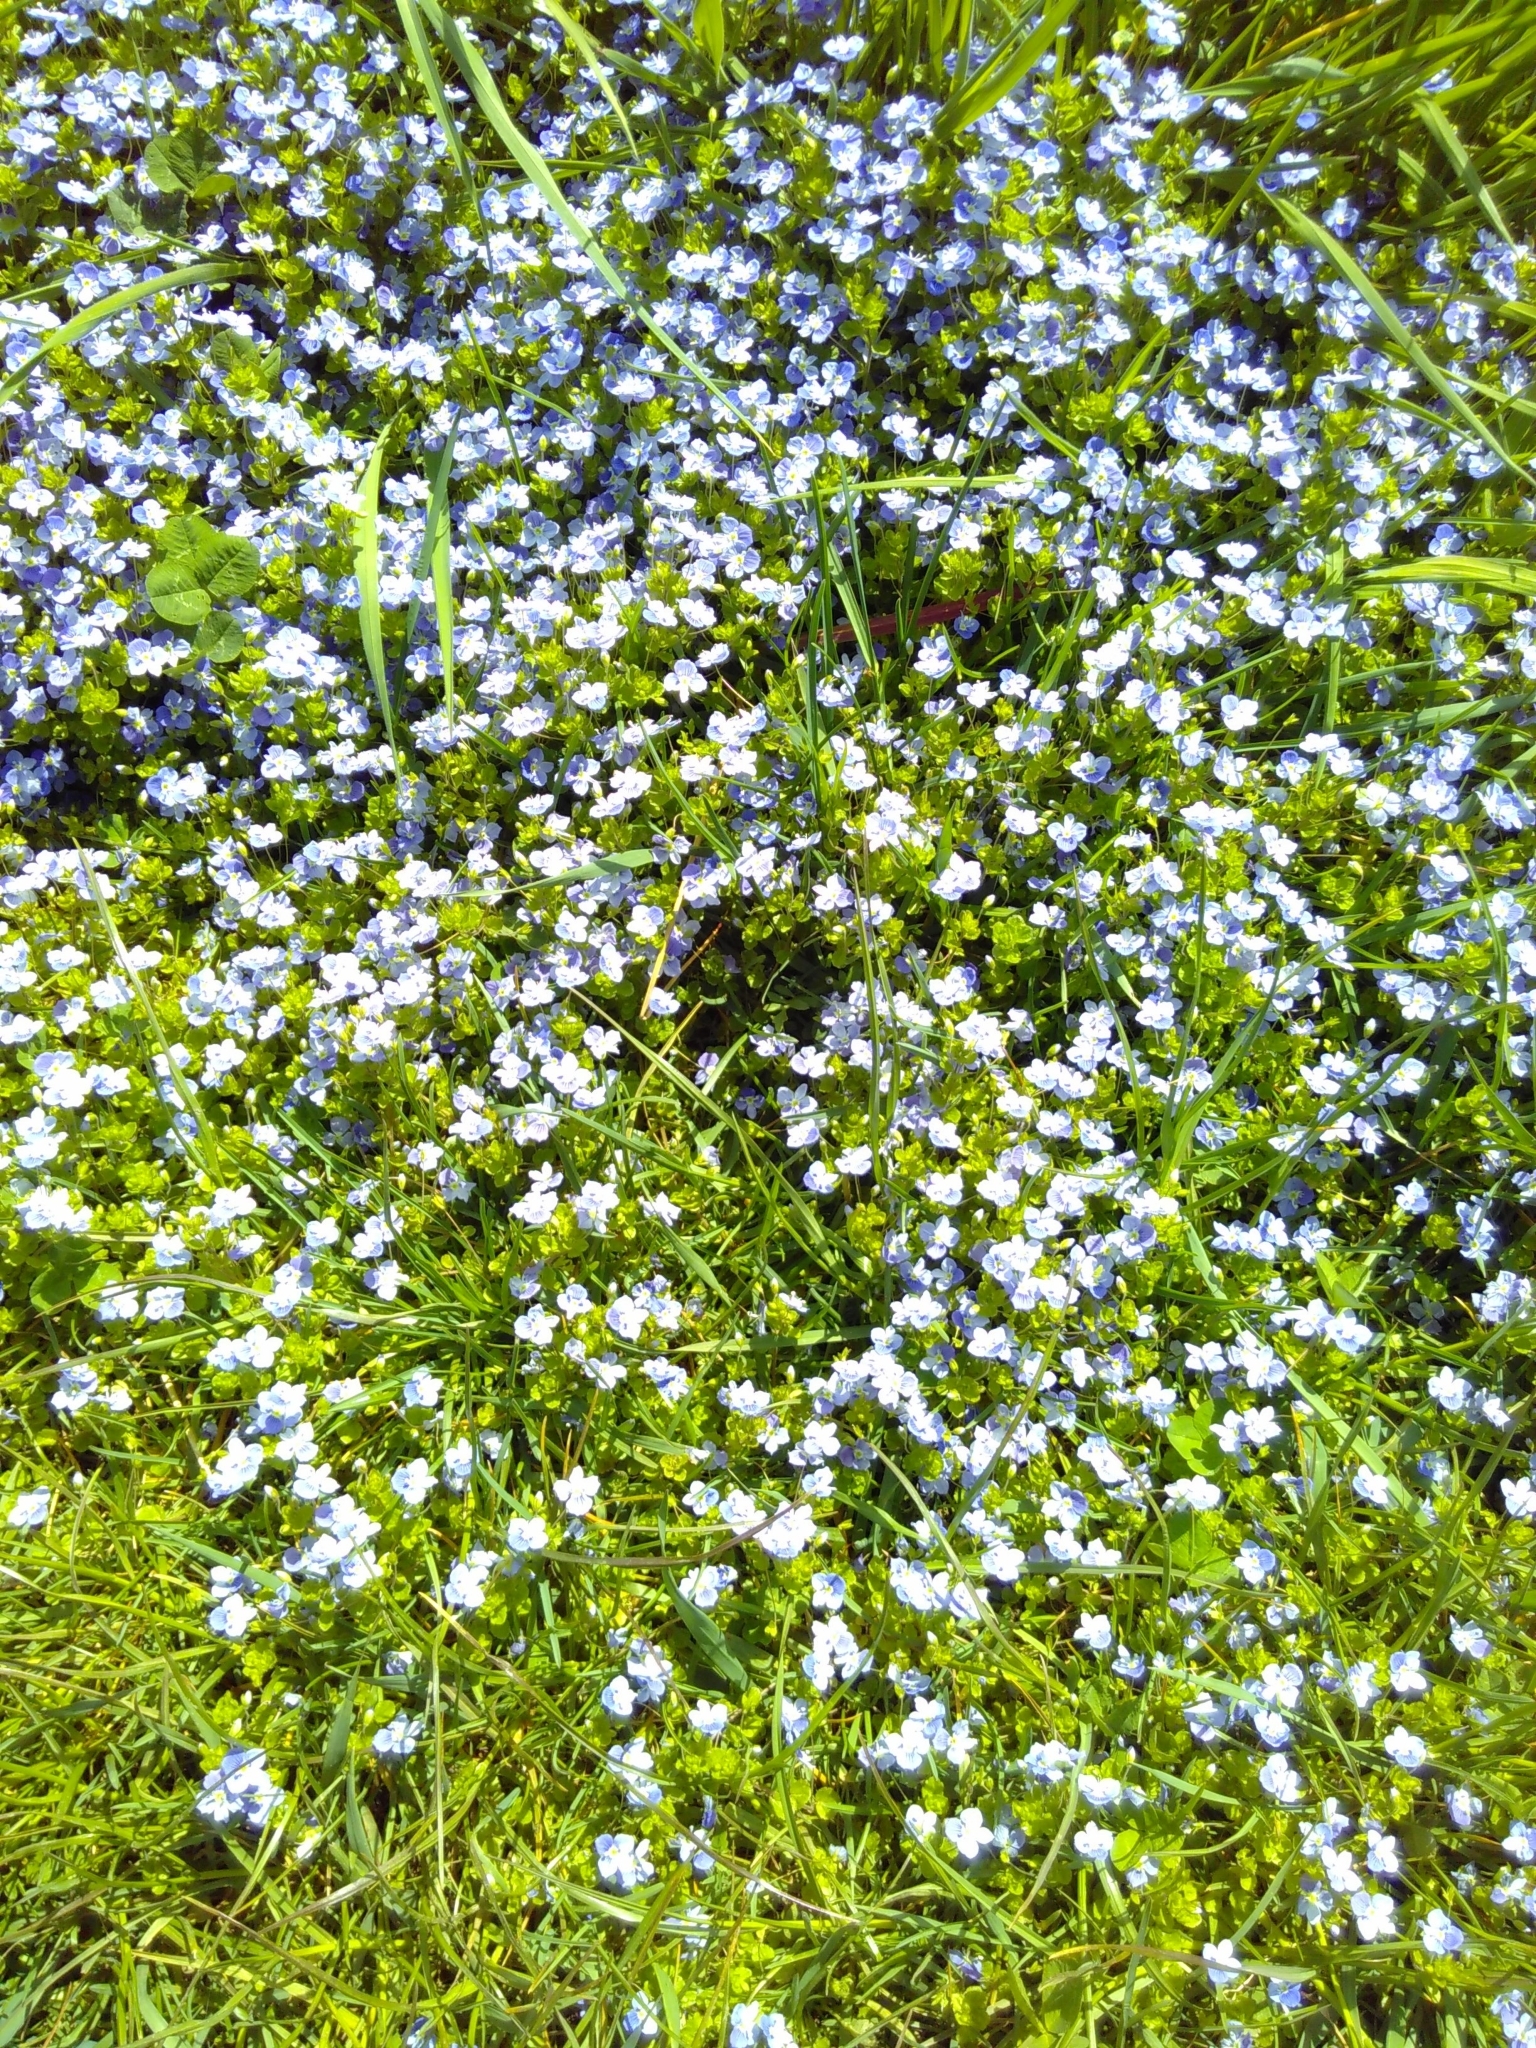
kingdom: Plantae
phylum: Tracheophyta
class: Magnoliopsida
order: Lamiales
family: Plantaginaceae
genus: Veronica
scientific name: Veronica filiformis
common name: Slender speedwell
